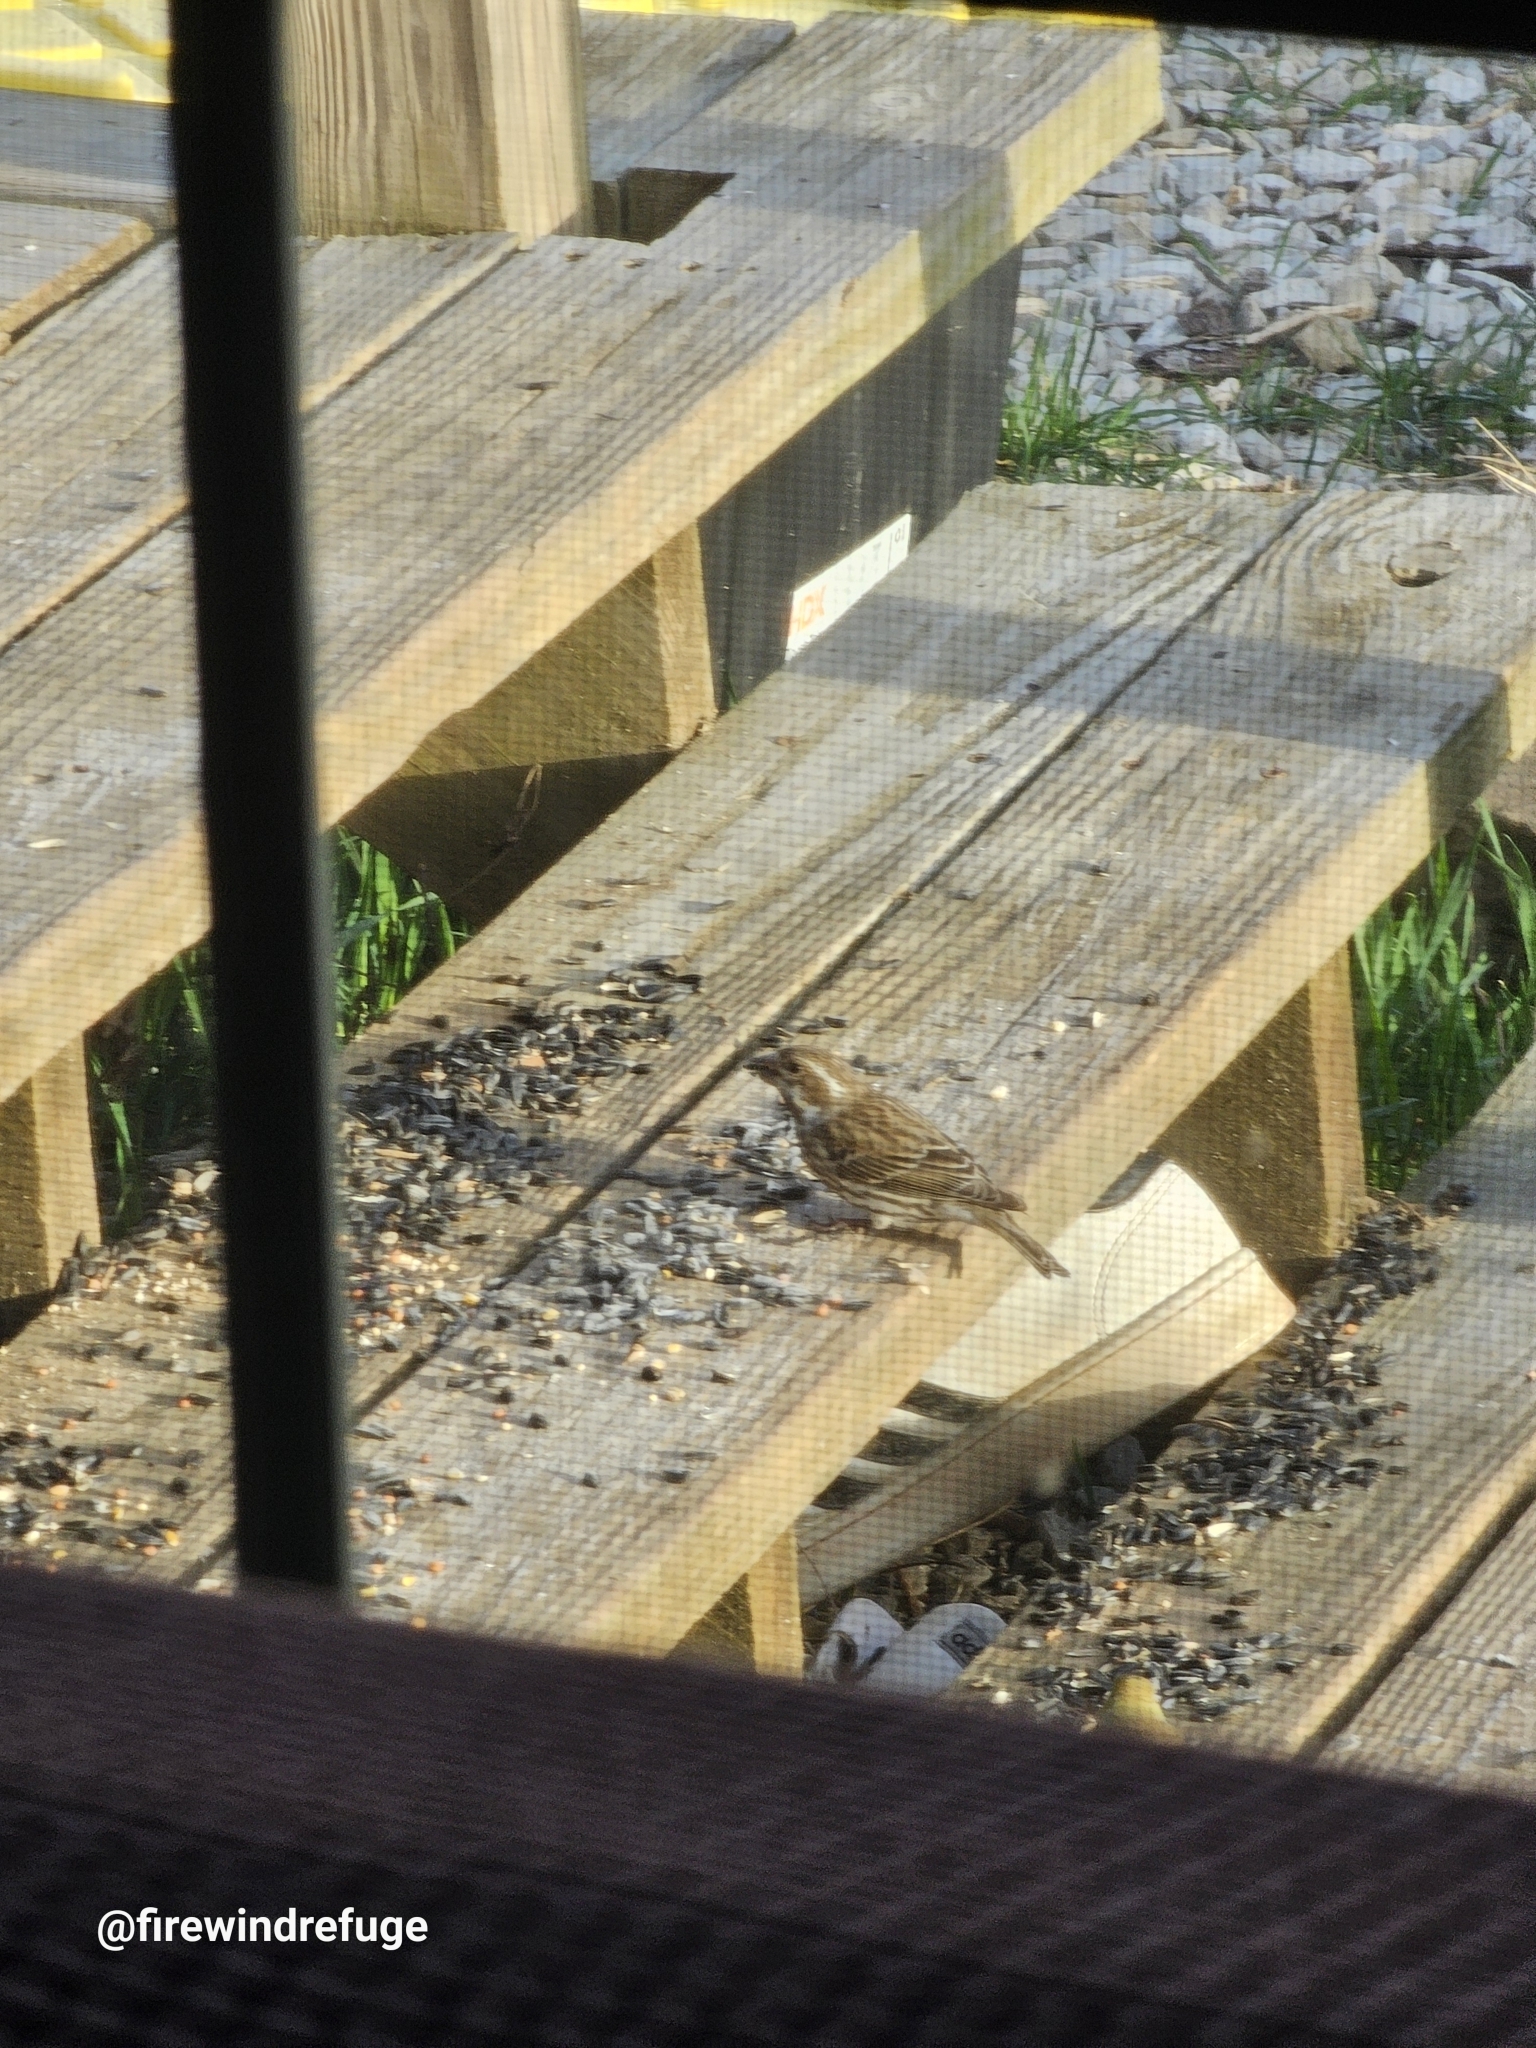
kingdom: Animalia
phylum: Chordata
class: Aves
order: Passeriformes
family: Fringillidae
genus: Haemorhous
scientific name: Haemorhous purpureus
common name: Purple finch
